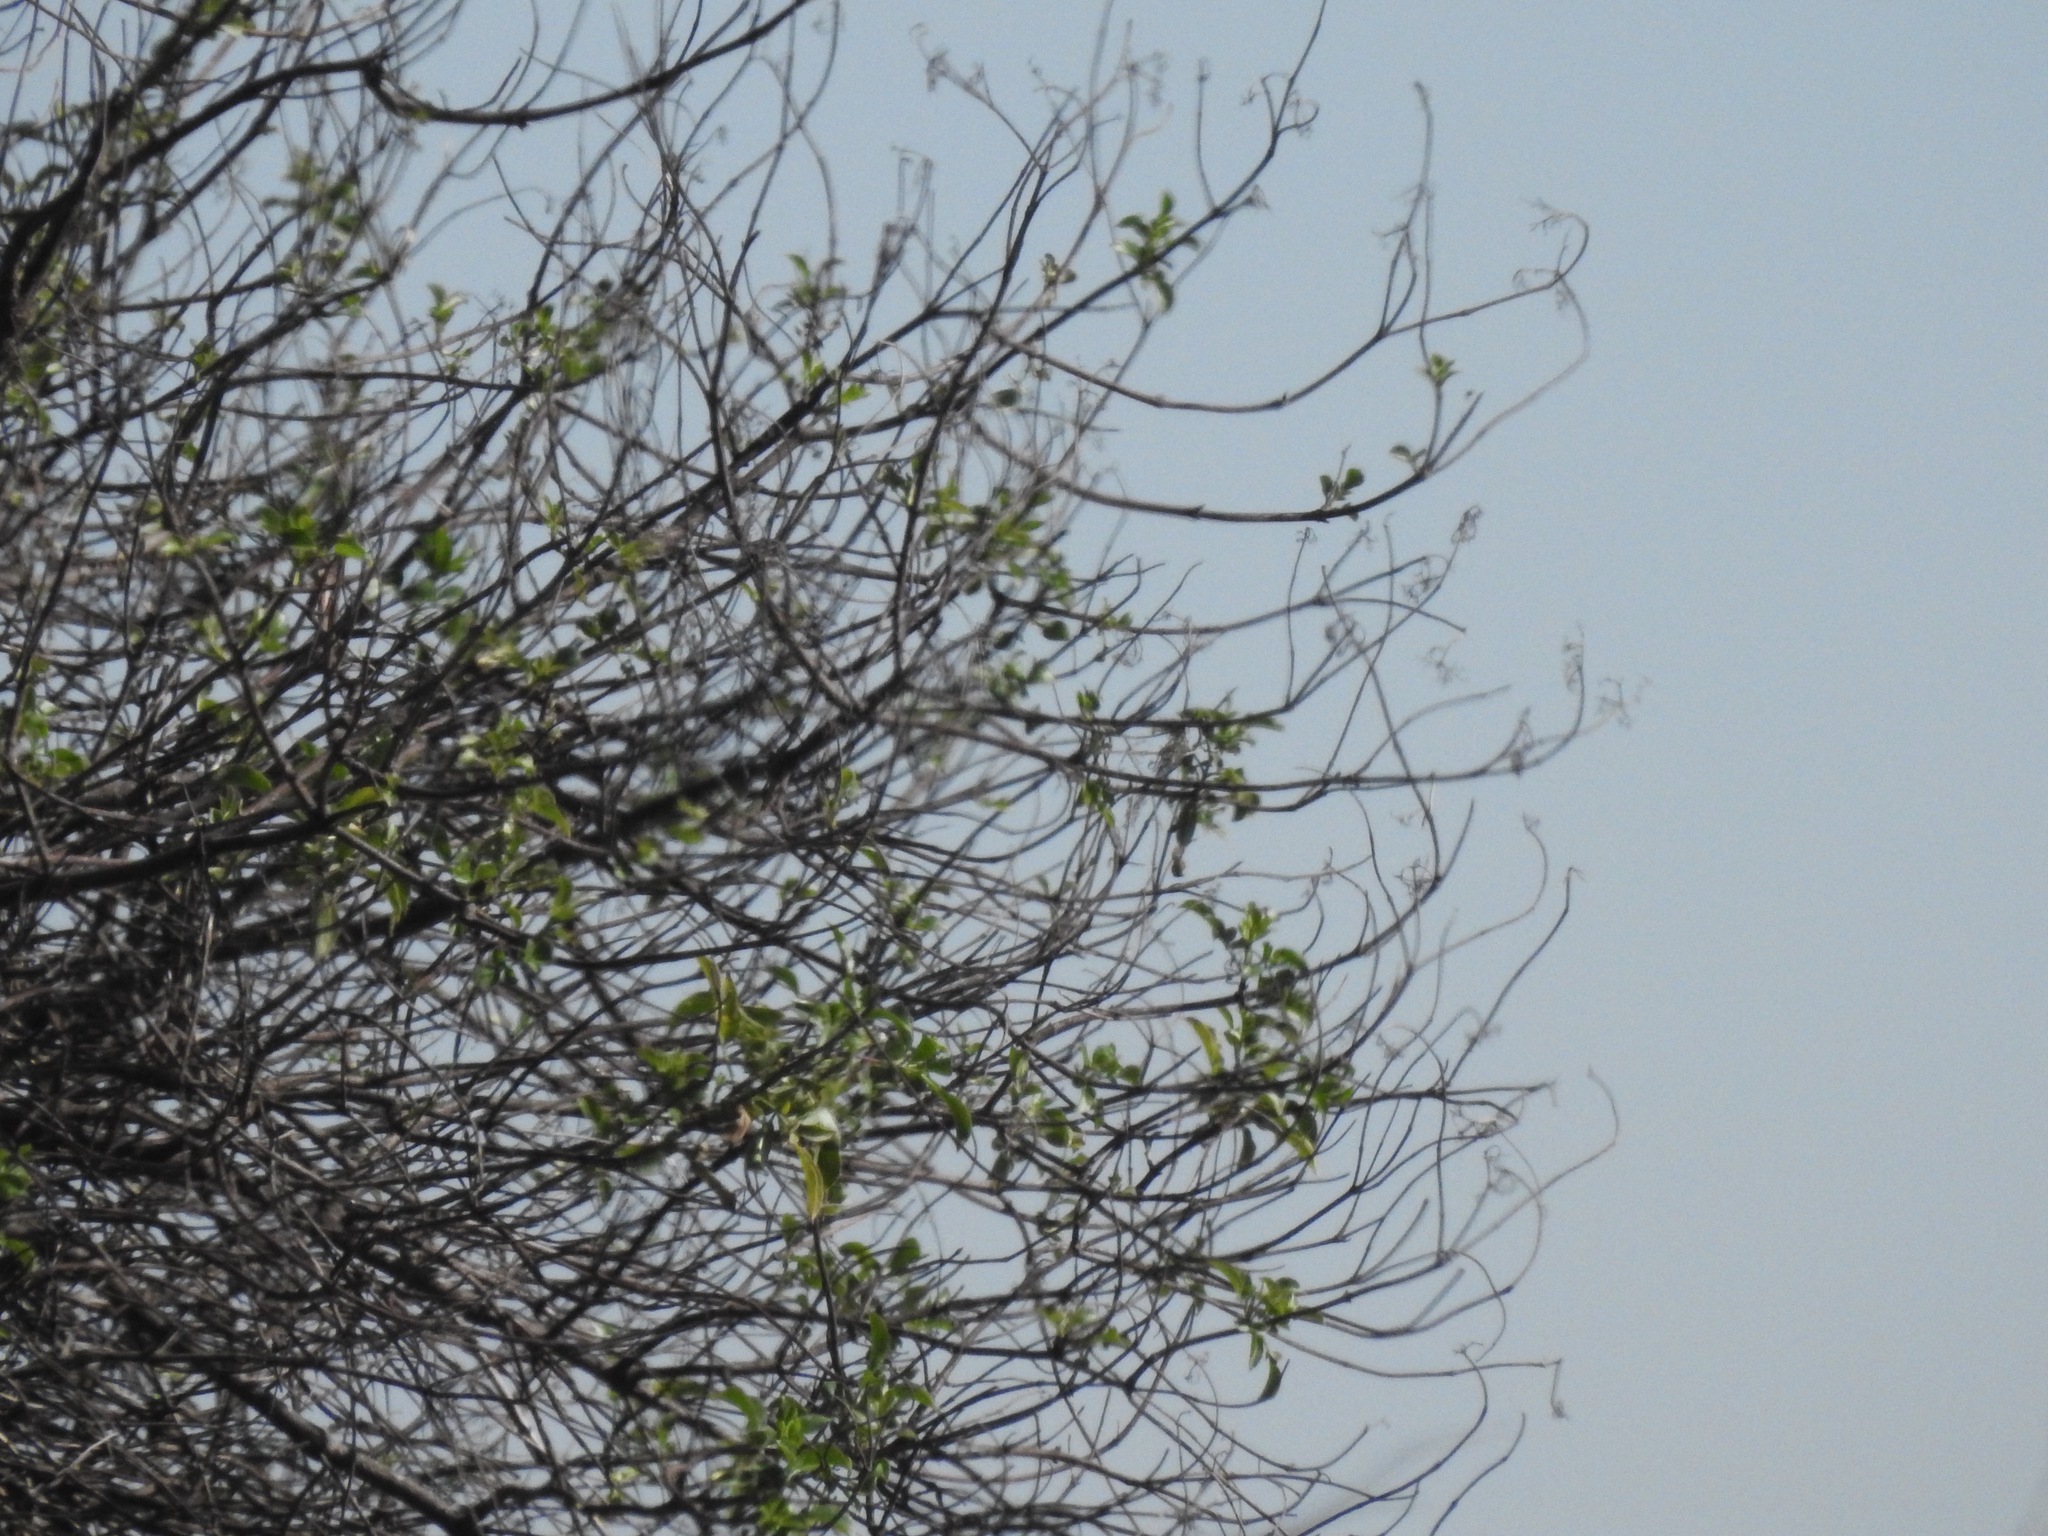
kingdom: Plantae
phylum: Tracheophyta
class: Magnoliopsida
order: Dipsacales
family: Viburnaceae
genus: Sambucus
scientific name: Sambucus cerulea
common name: Blue elder
